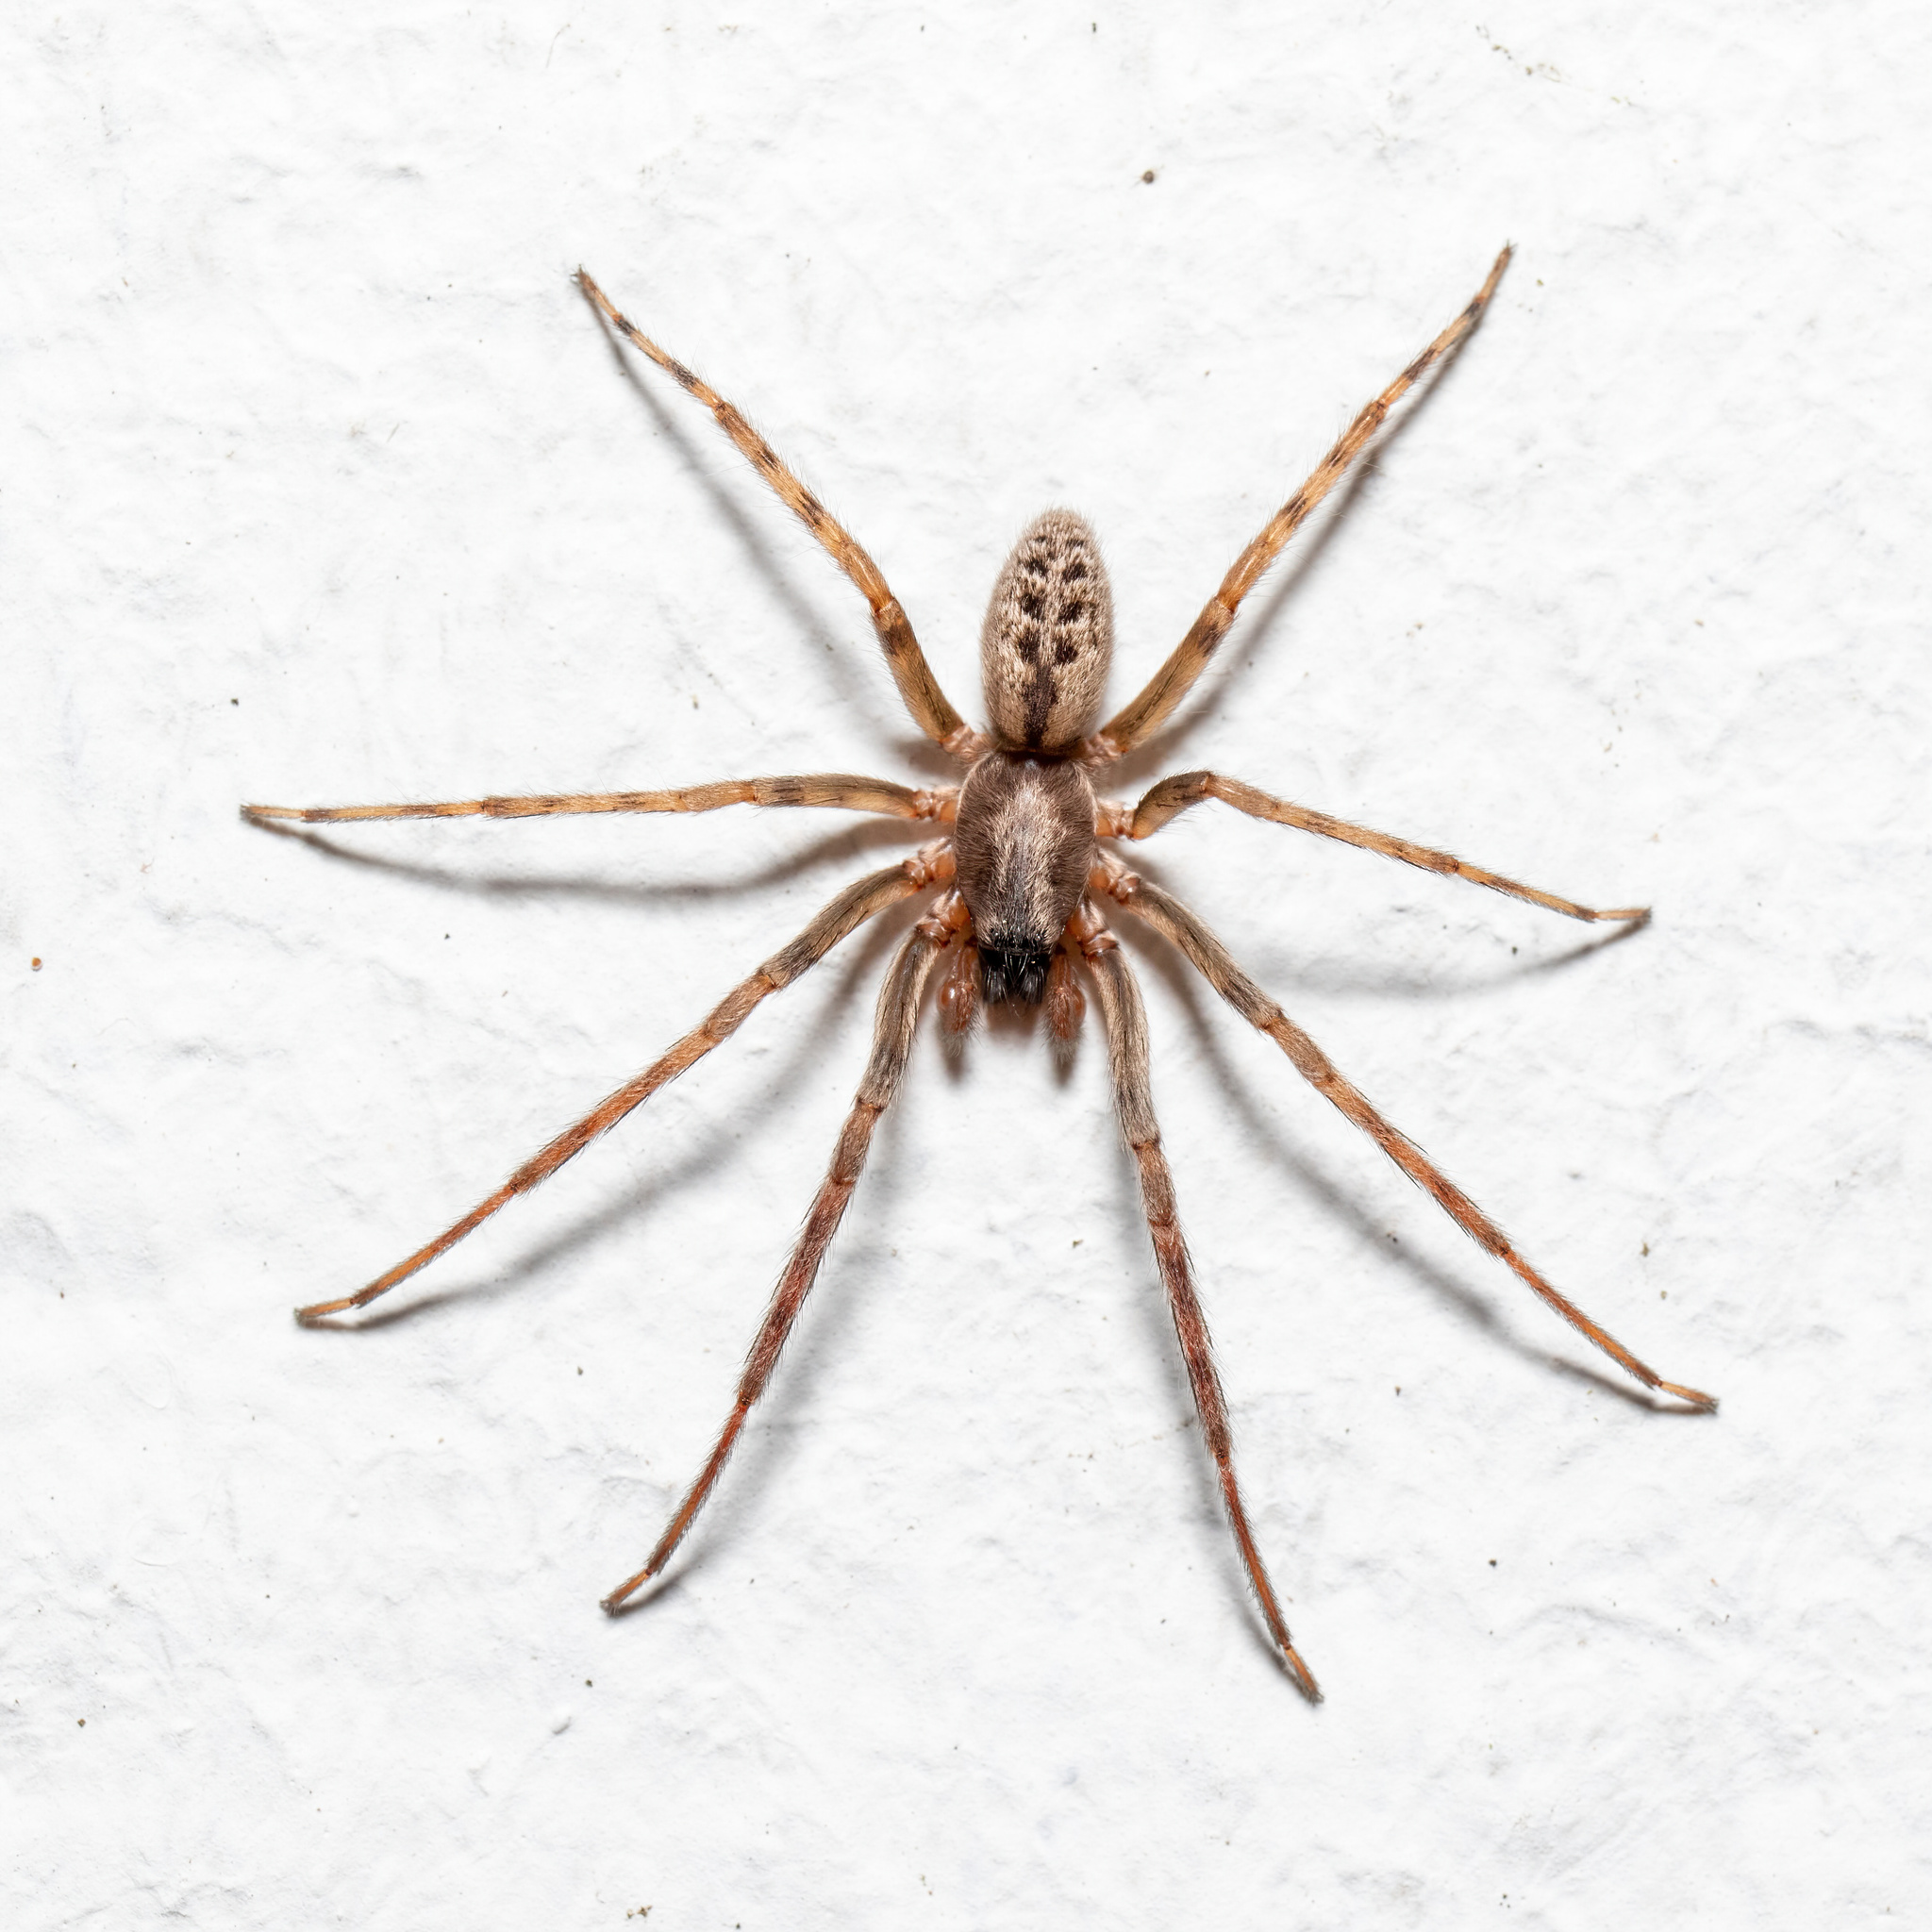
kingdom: Animalia
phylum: Arthropoda
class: Arachnida
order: Araneae
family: Segestriidae
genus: Segestria
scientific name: Segestria bavarica
